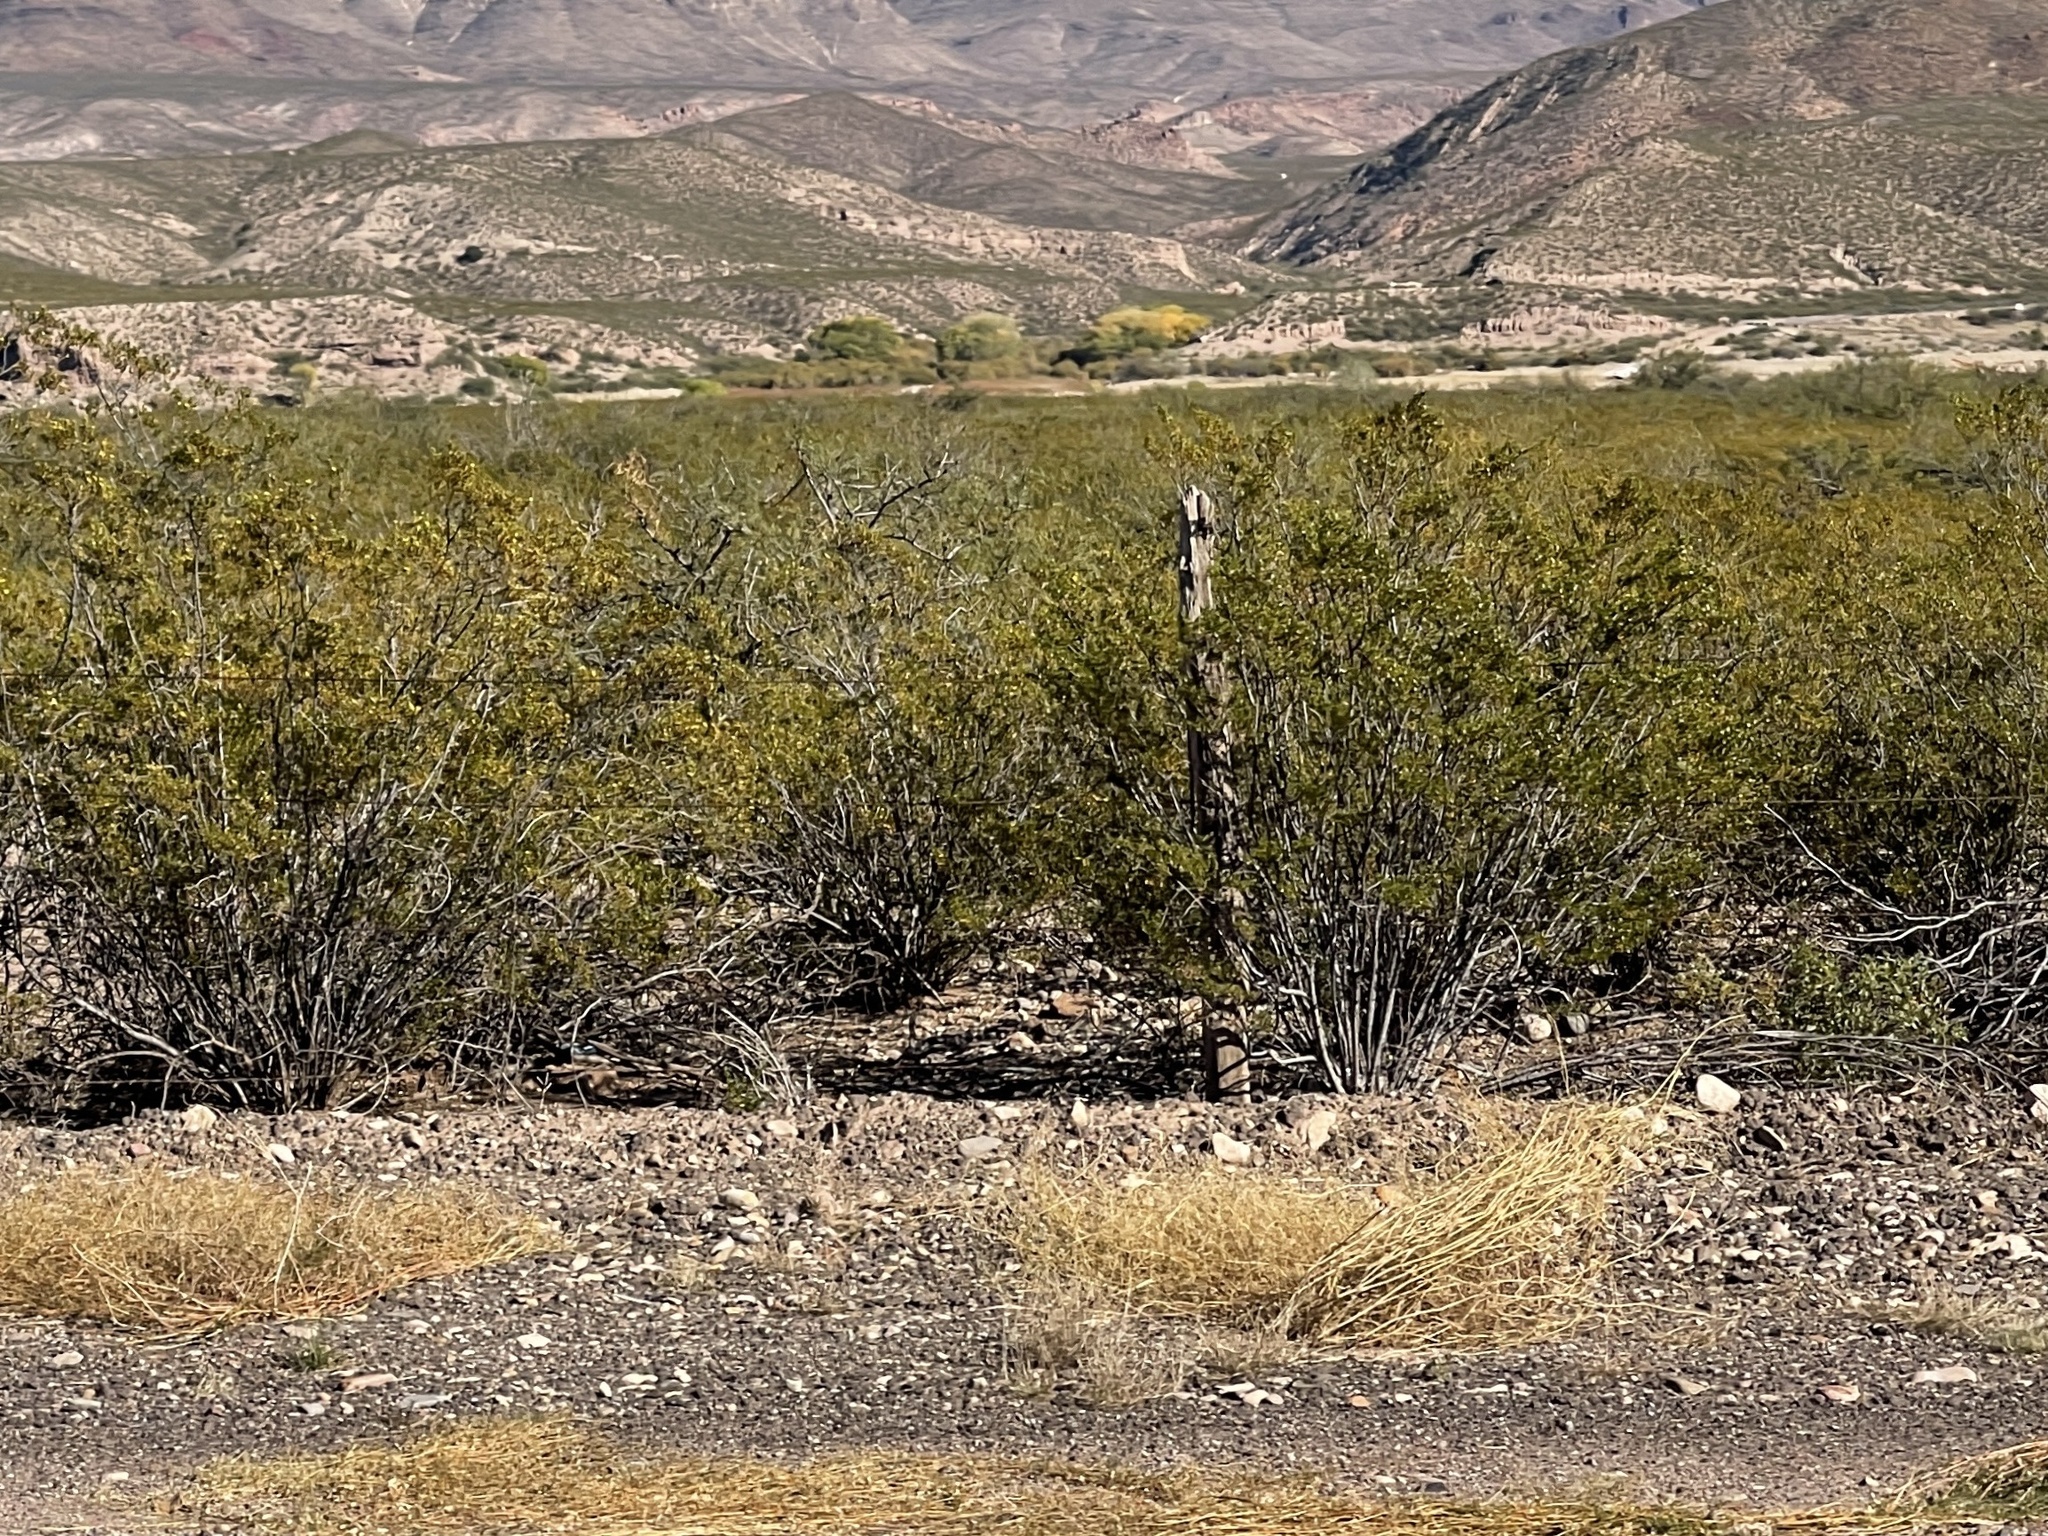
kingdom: Plantae
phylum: Tracheophyta
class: Magnoliopsida
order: Zygophyllales
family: Zygophyllaceae
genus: Larrea
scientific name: Larrea tridentata
